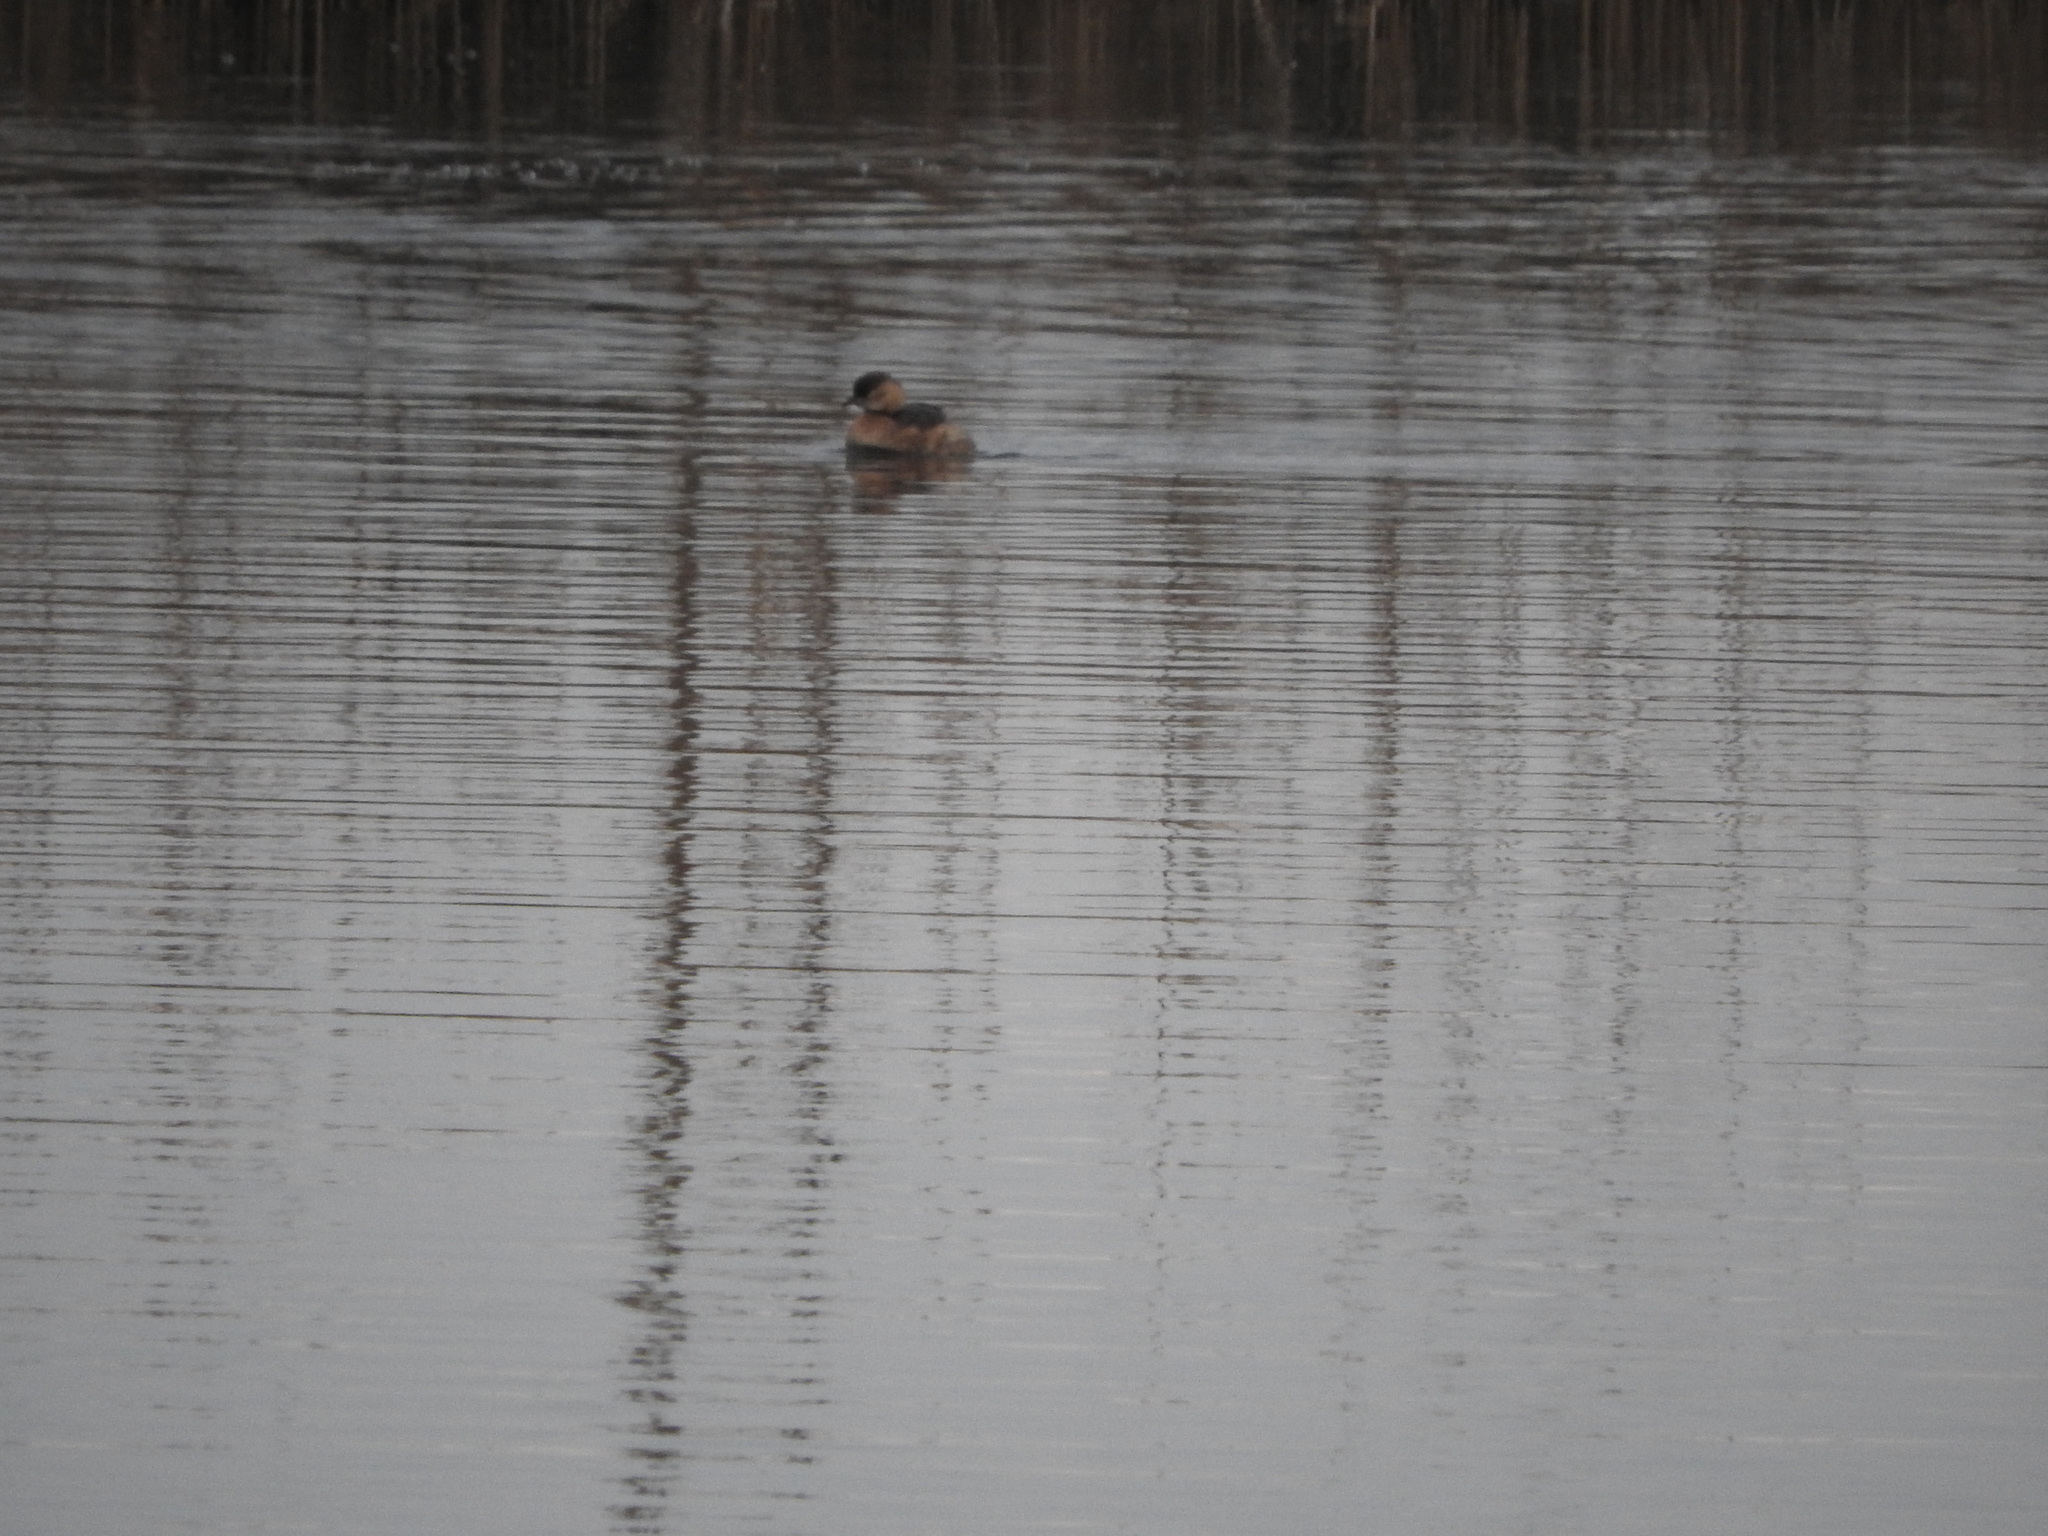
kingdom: Animalia
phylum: Chordata
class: Aves
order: Podicipediformes
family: Podicipedidae
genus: Tachybaptus
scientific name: Tachybaptus ruficollis
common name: Little grebe
